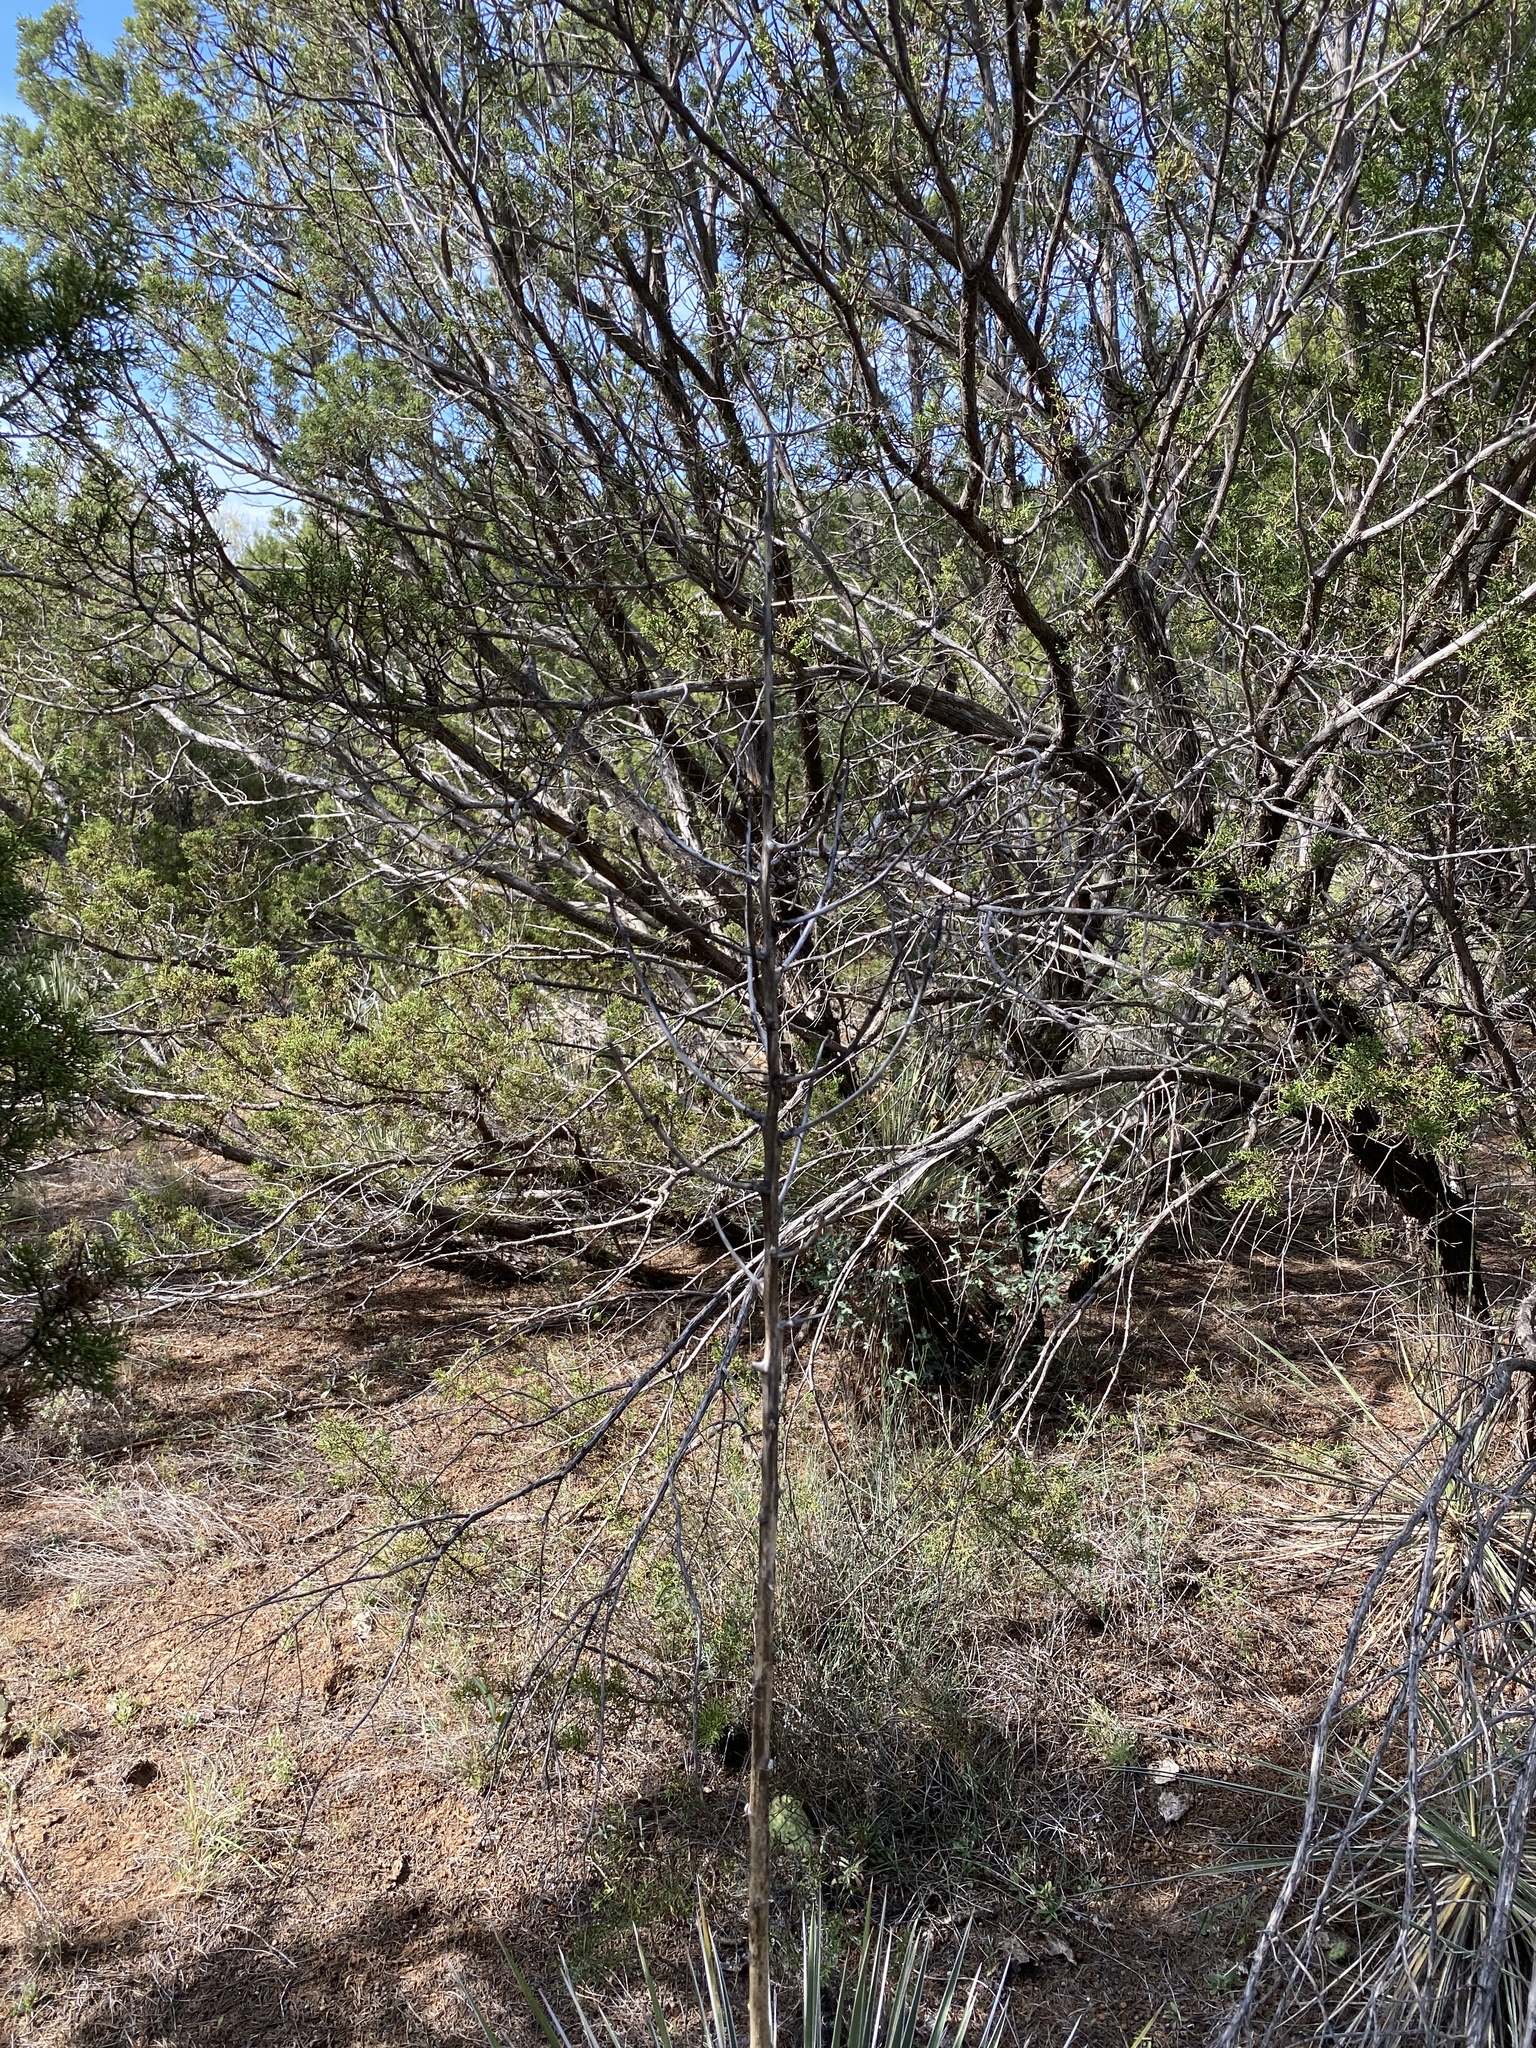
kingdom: Plantae
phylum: Tracheophyta
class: Liliopsida
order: Asparagales
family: Asparagaceae
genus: Yucca
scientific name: Yucca constricta
